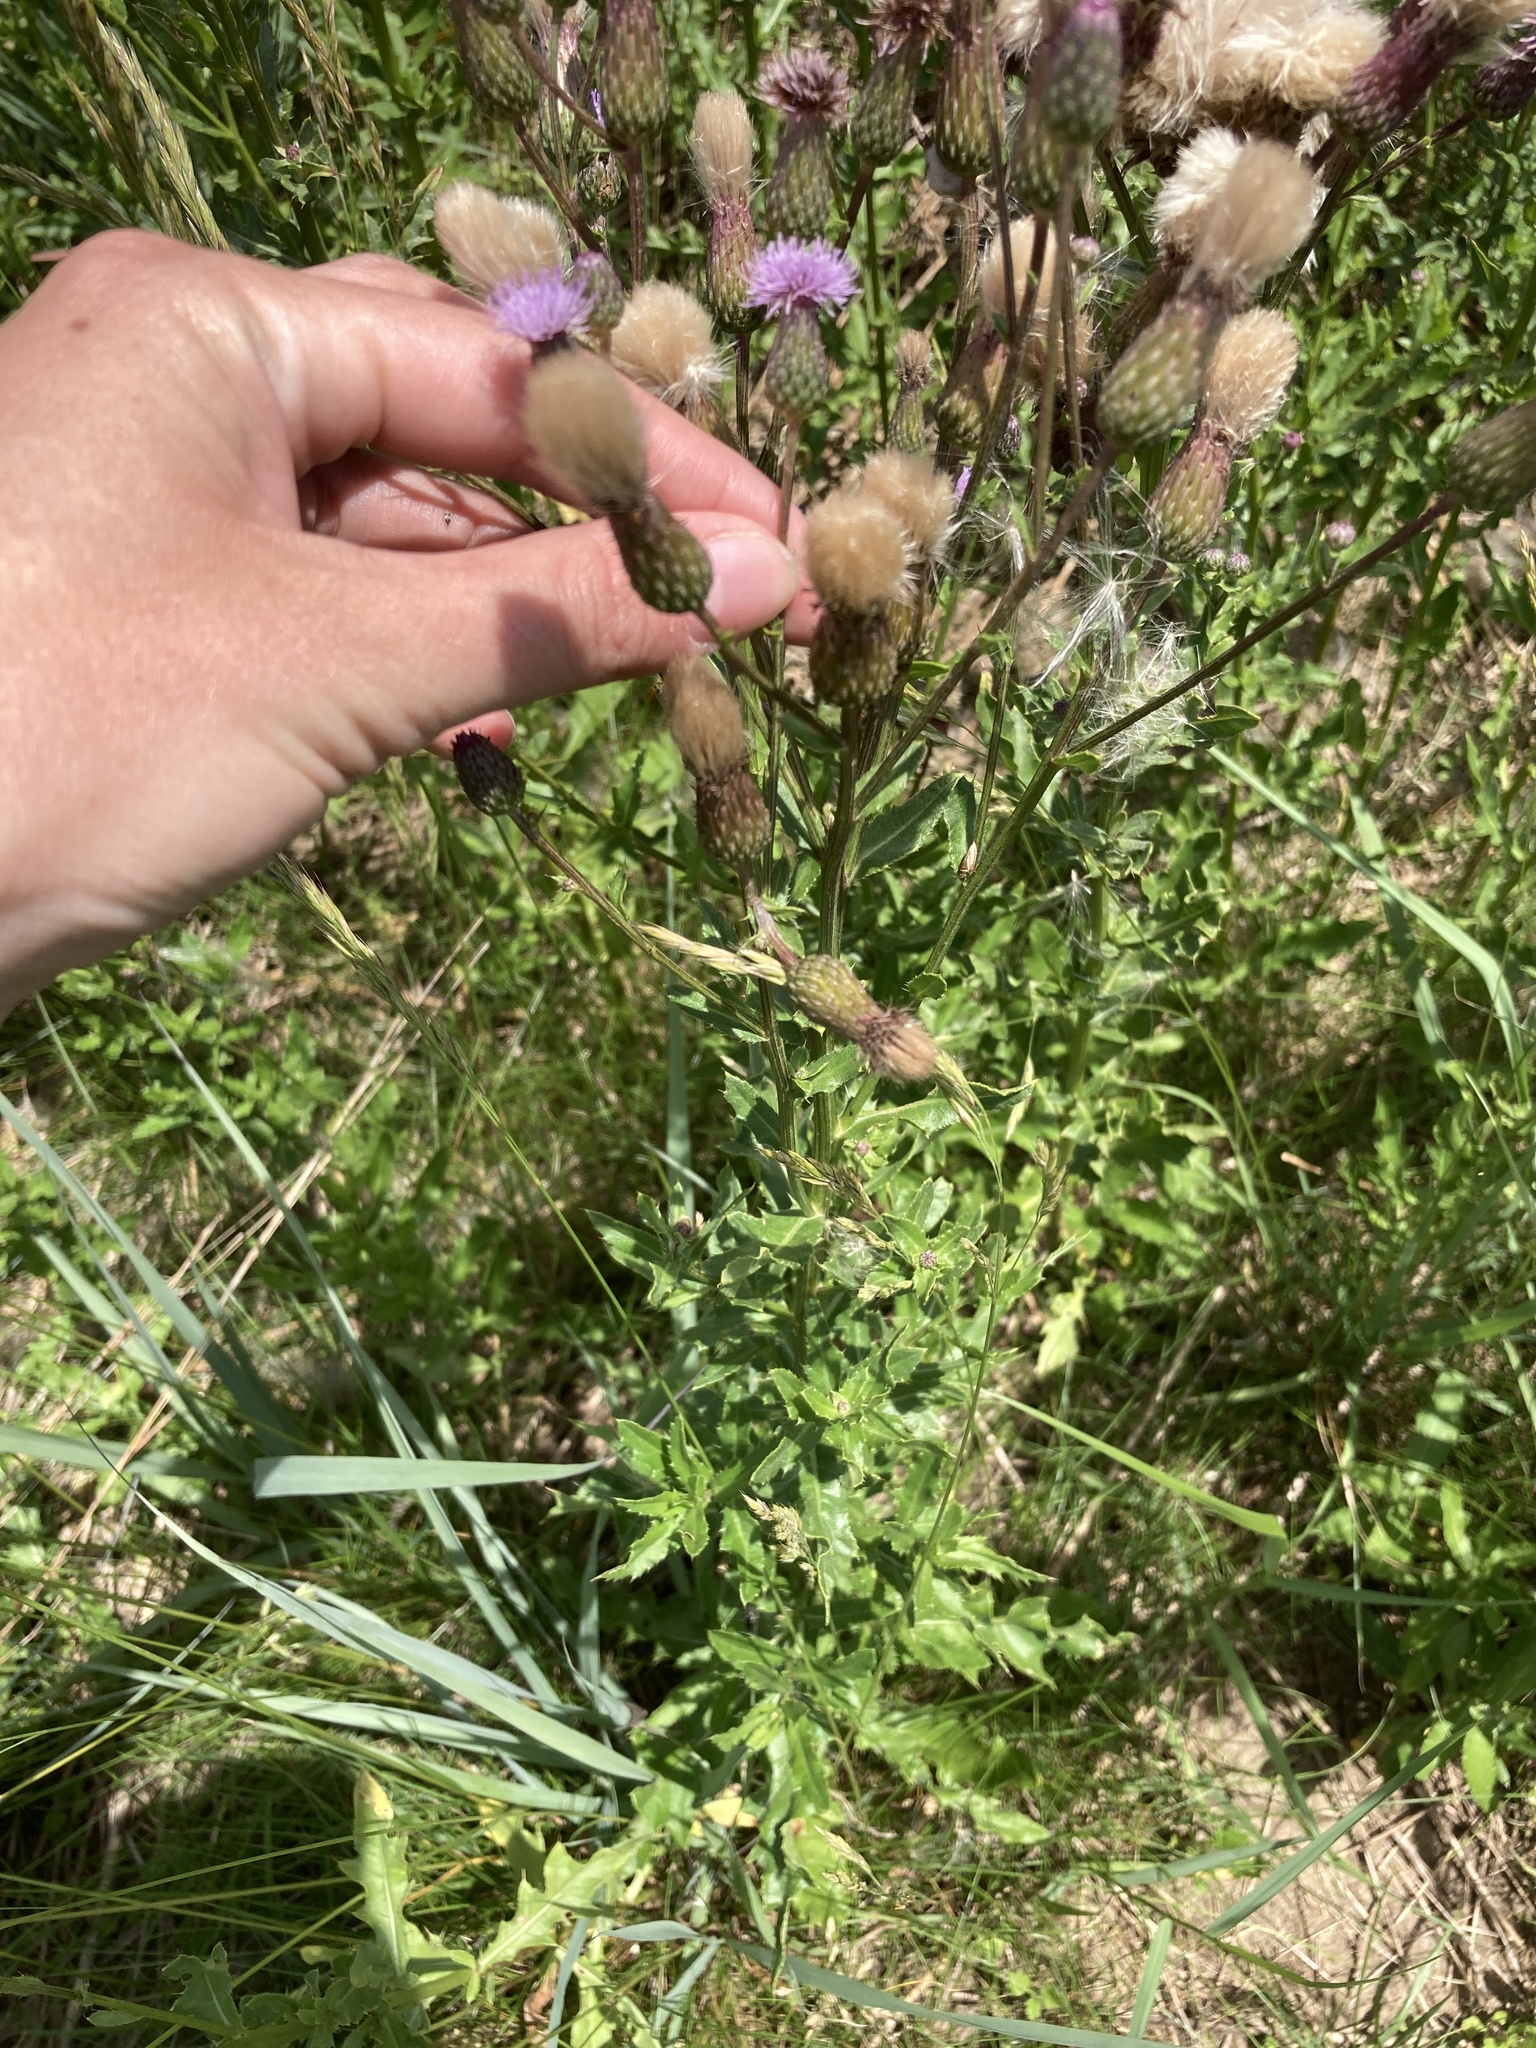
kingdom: Plantae
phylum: Tracheophyta
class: Magnoliopsida
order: Asterales
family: Asteraceae
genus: Cirsium
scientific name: Cirsium arvense
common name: Creeping thistle
